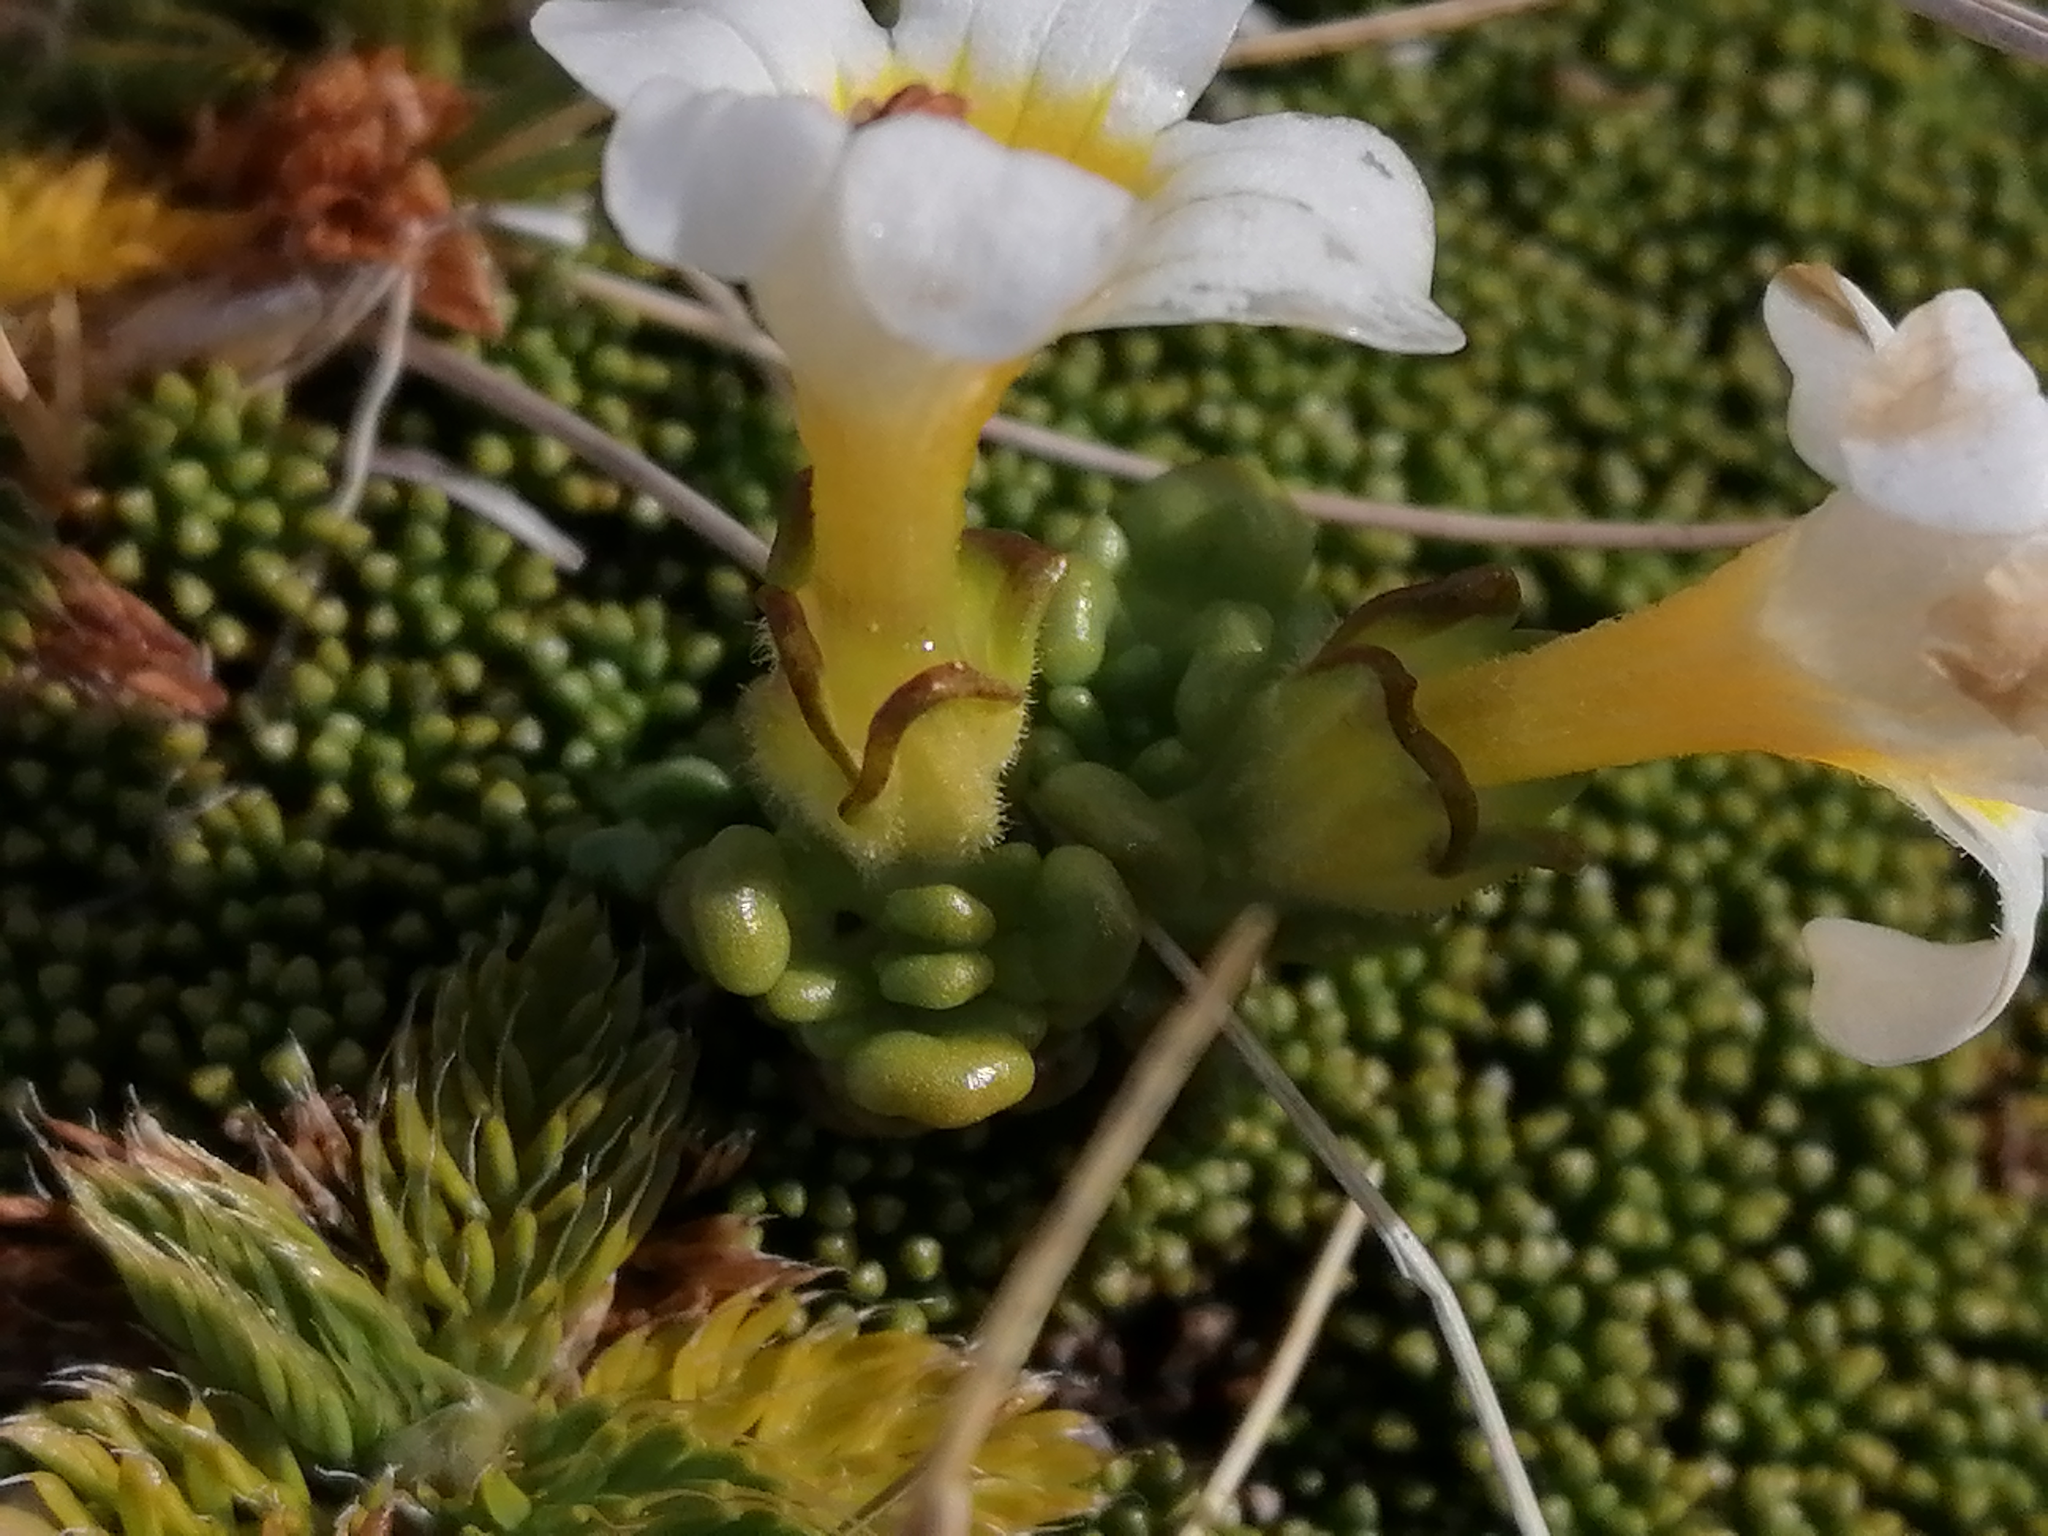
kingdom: Plantae
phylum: Tracheophyta
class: Magnoliopsida
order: Lamiales
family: Orobanchaceae
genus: Euphrasia
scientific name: Euphrasia revoluta
